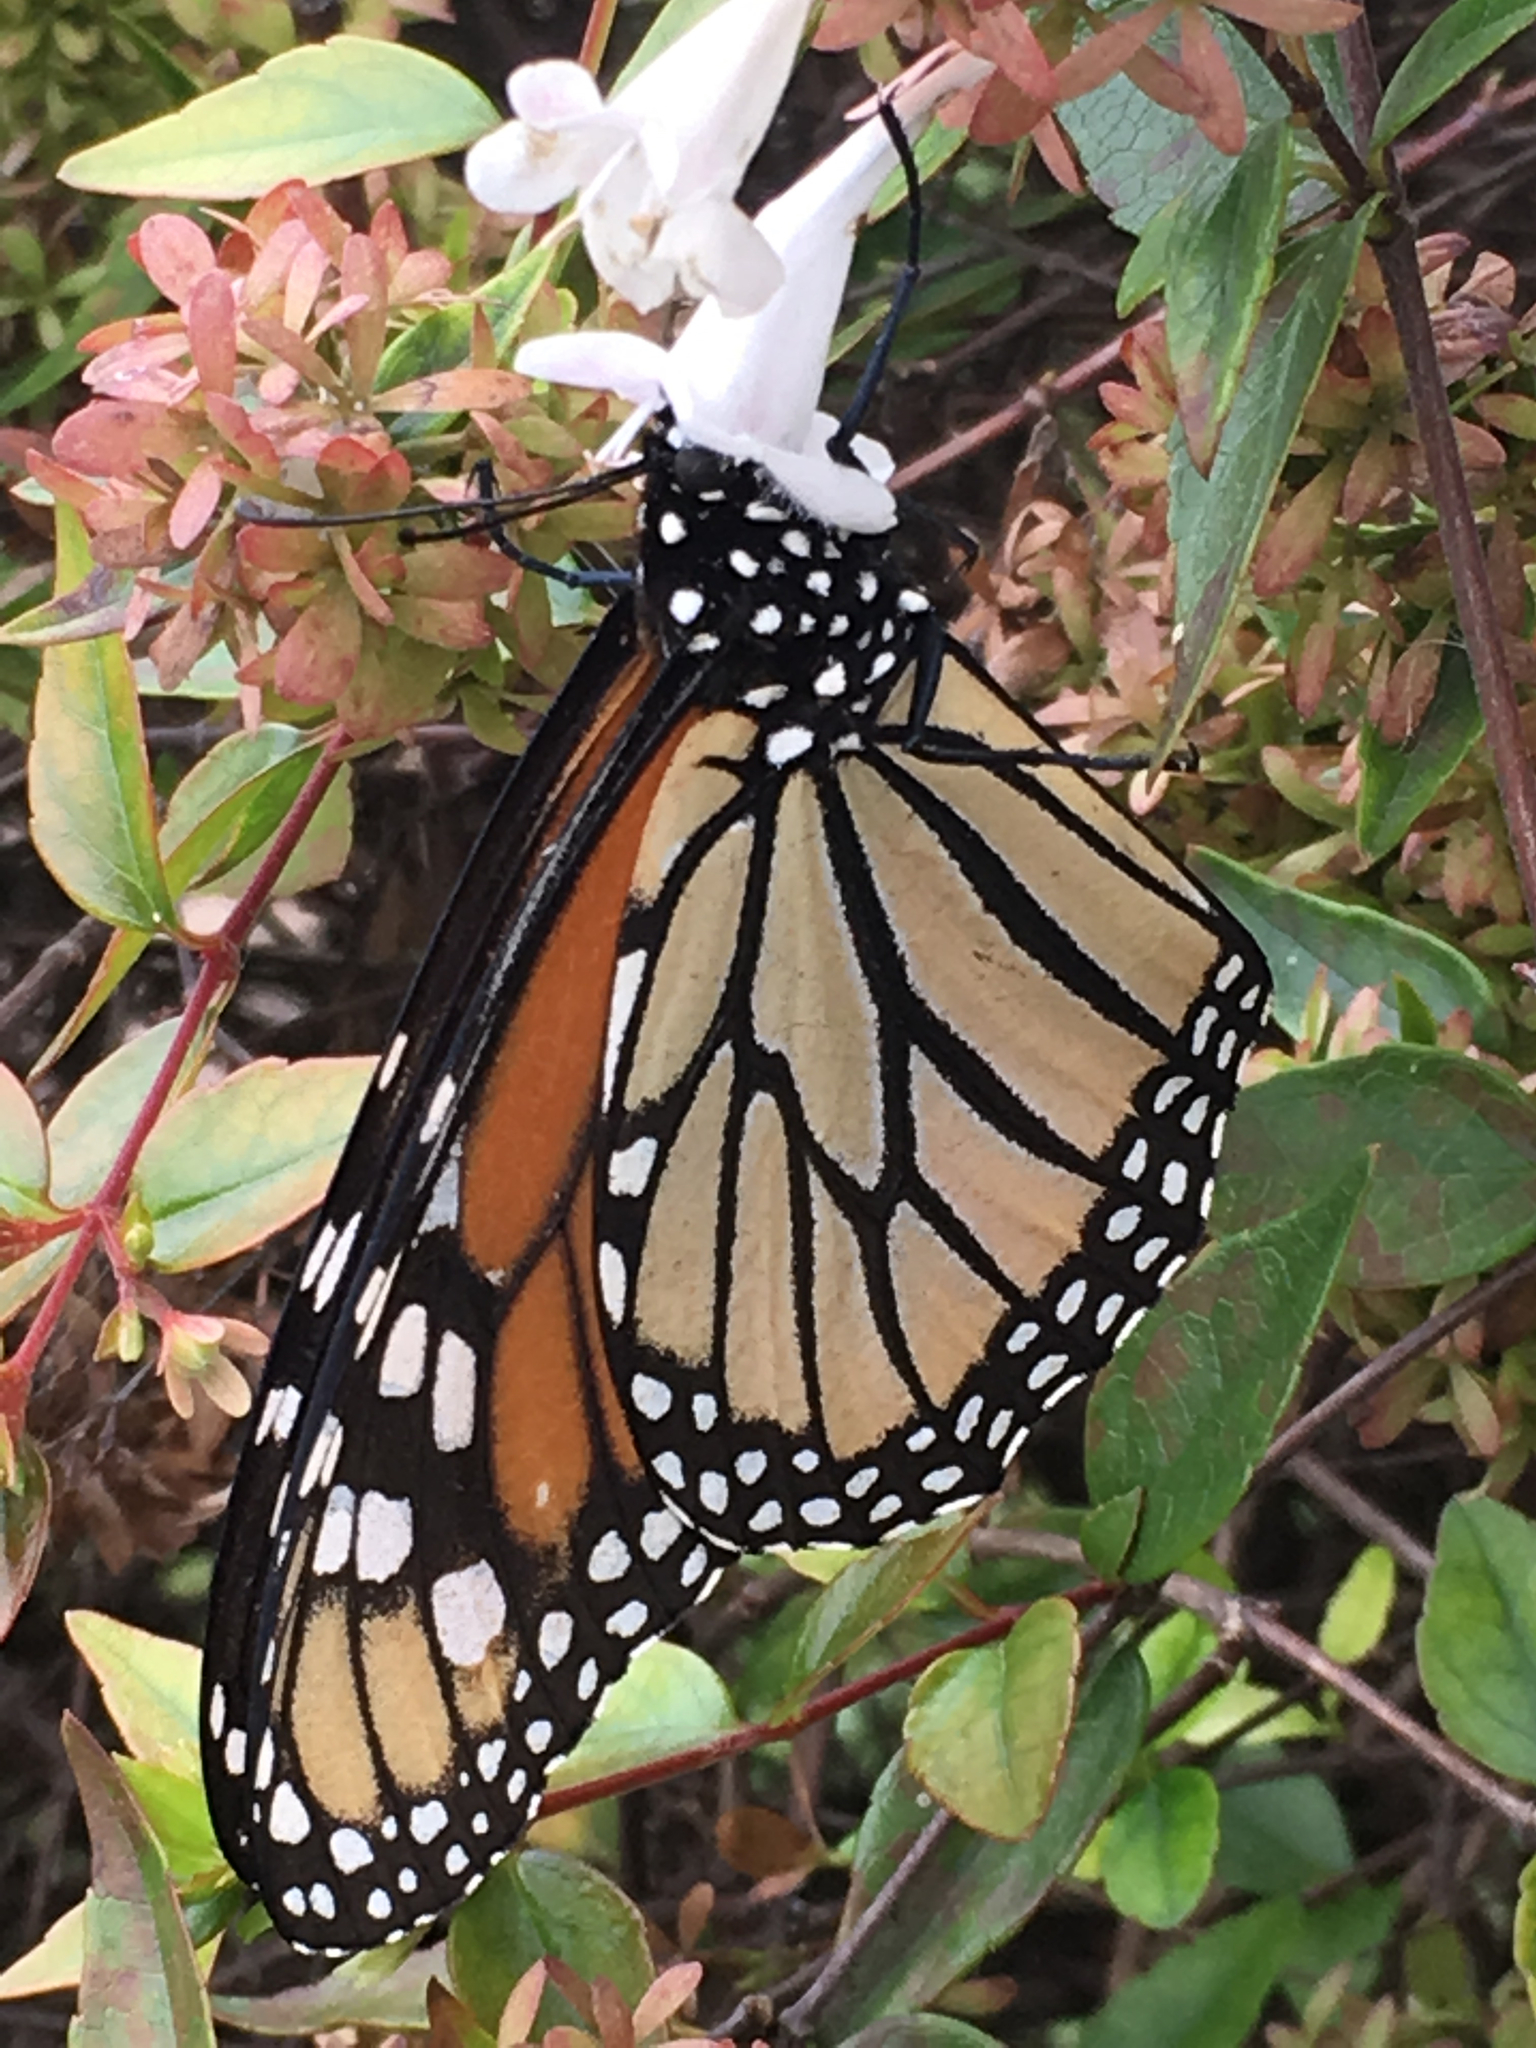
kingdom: Animalia
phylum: Arthropoda
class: Insecta
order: Lepidoptera
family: Nymphalidae
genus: Danaus
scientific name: Danaus plexippus
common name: Monarch
